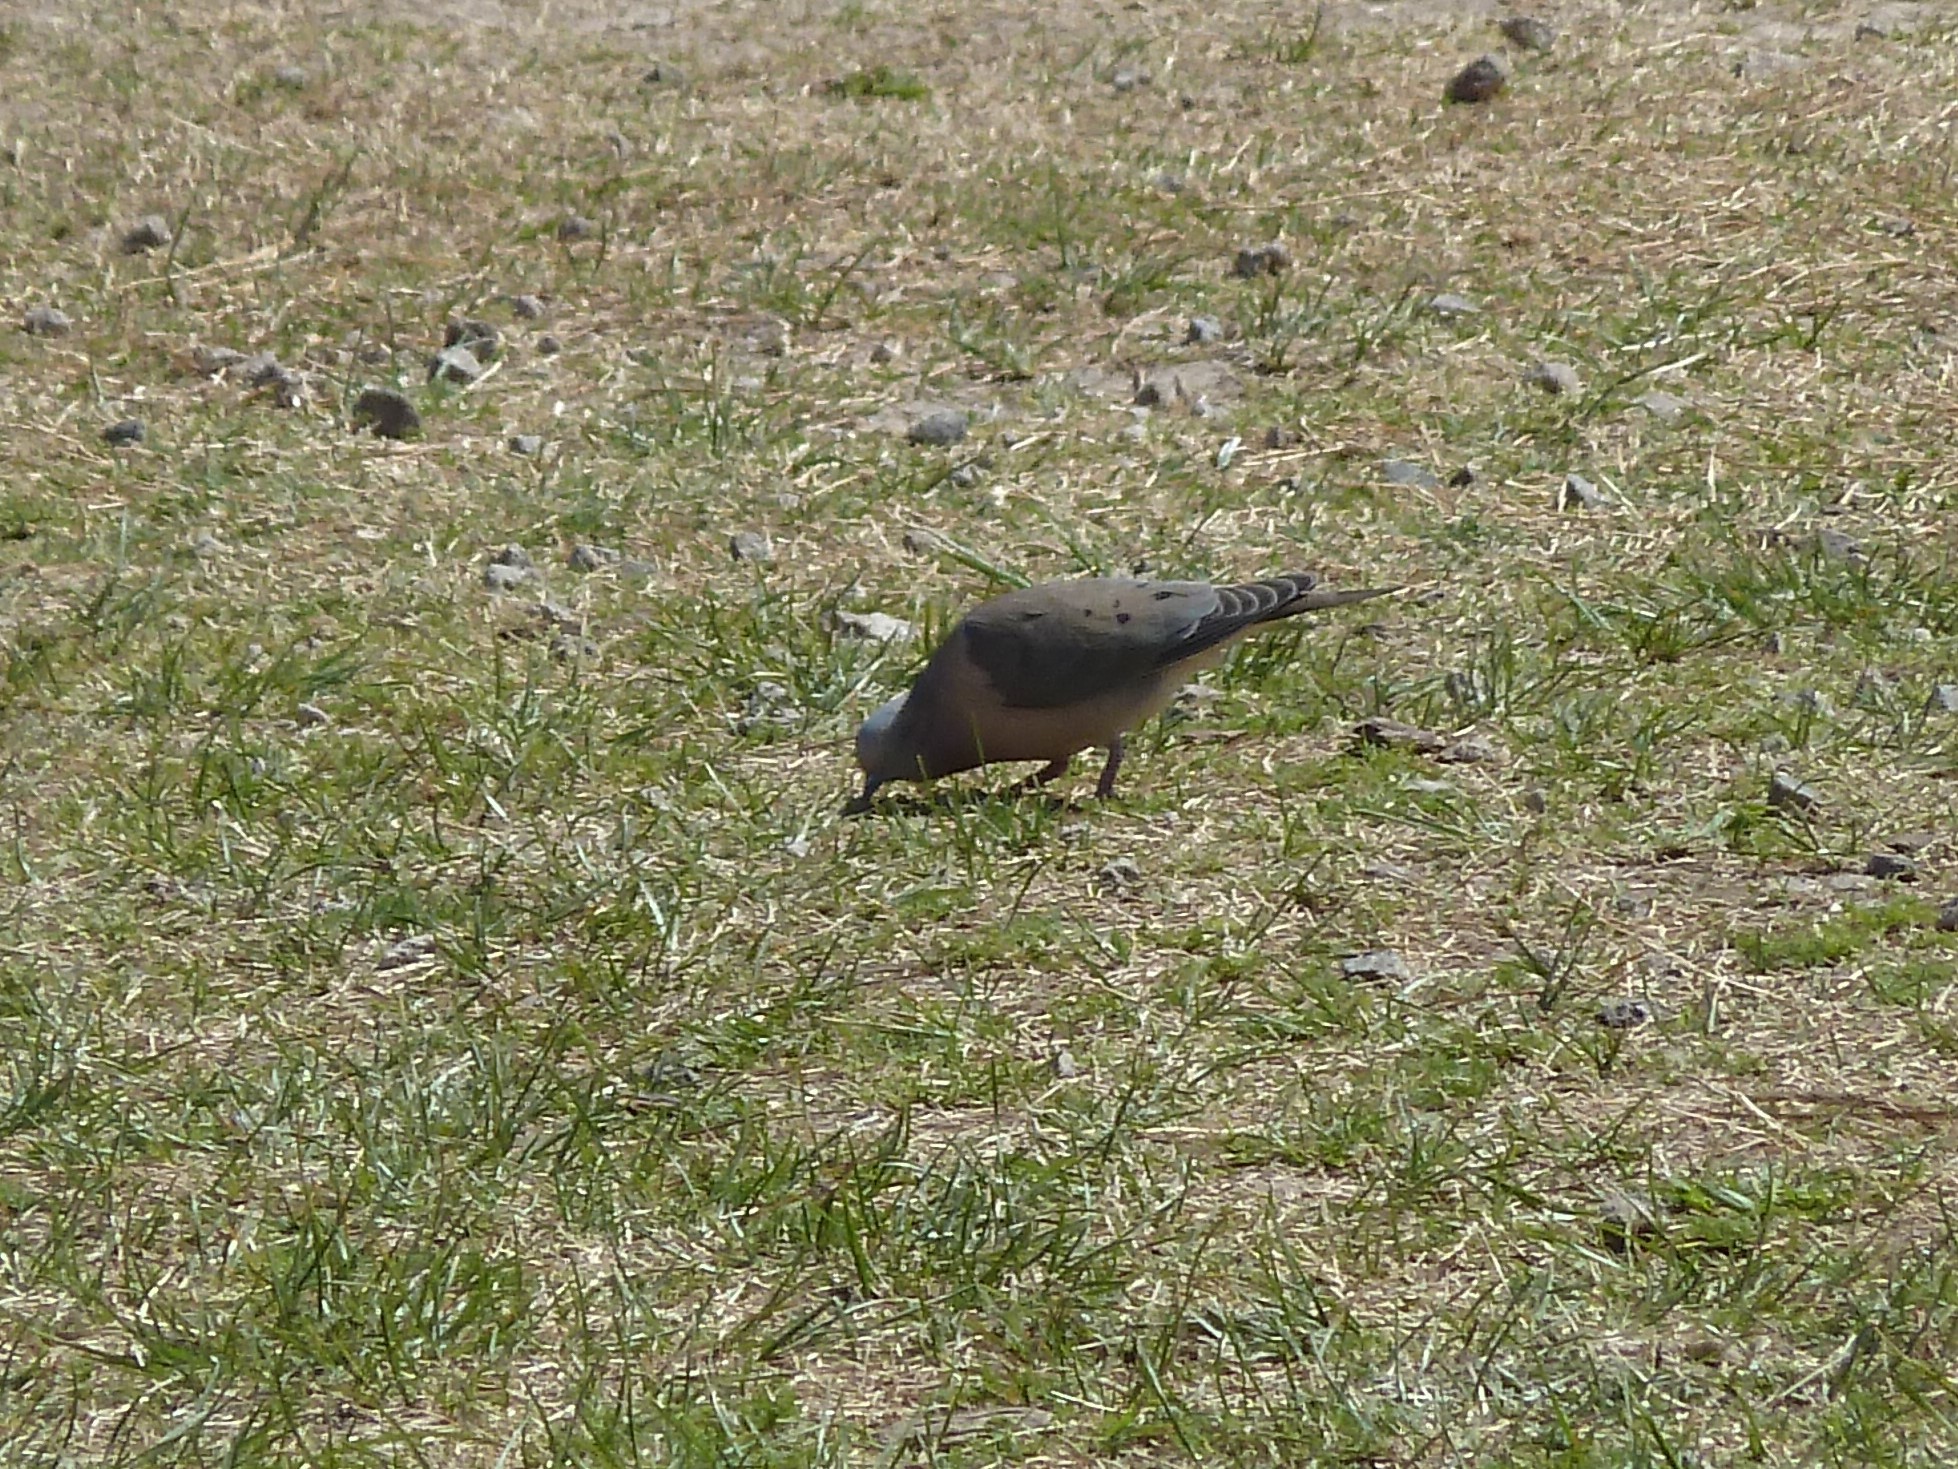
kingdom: Animalia
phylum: Chordata
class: Aves
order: Columbiformes
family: Columbidae
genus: Zenaida
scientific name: Zenaida auriculata
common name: Eared dove
